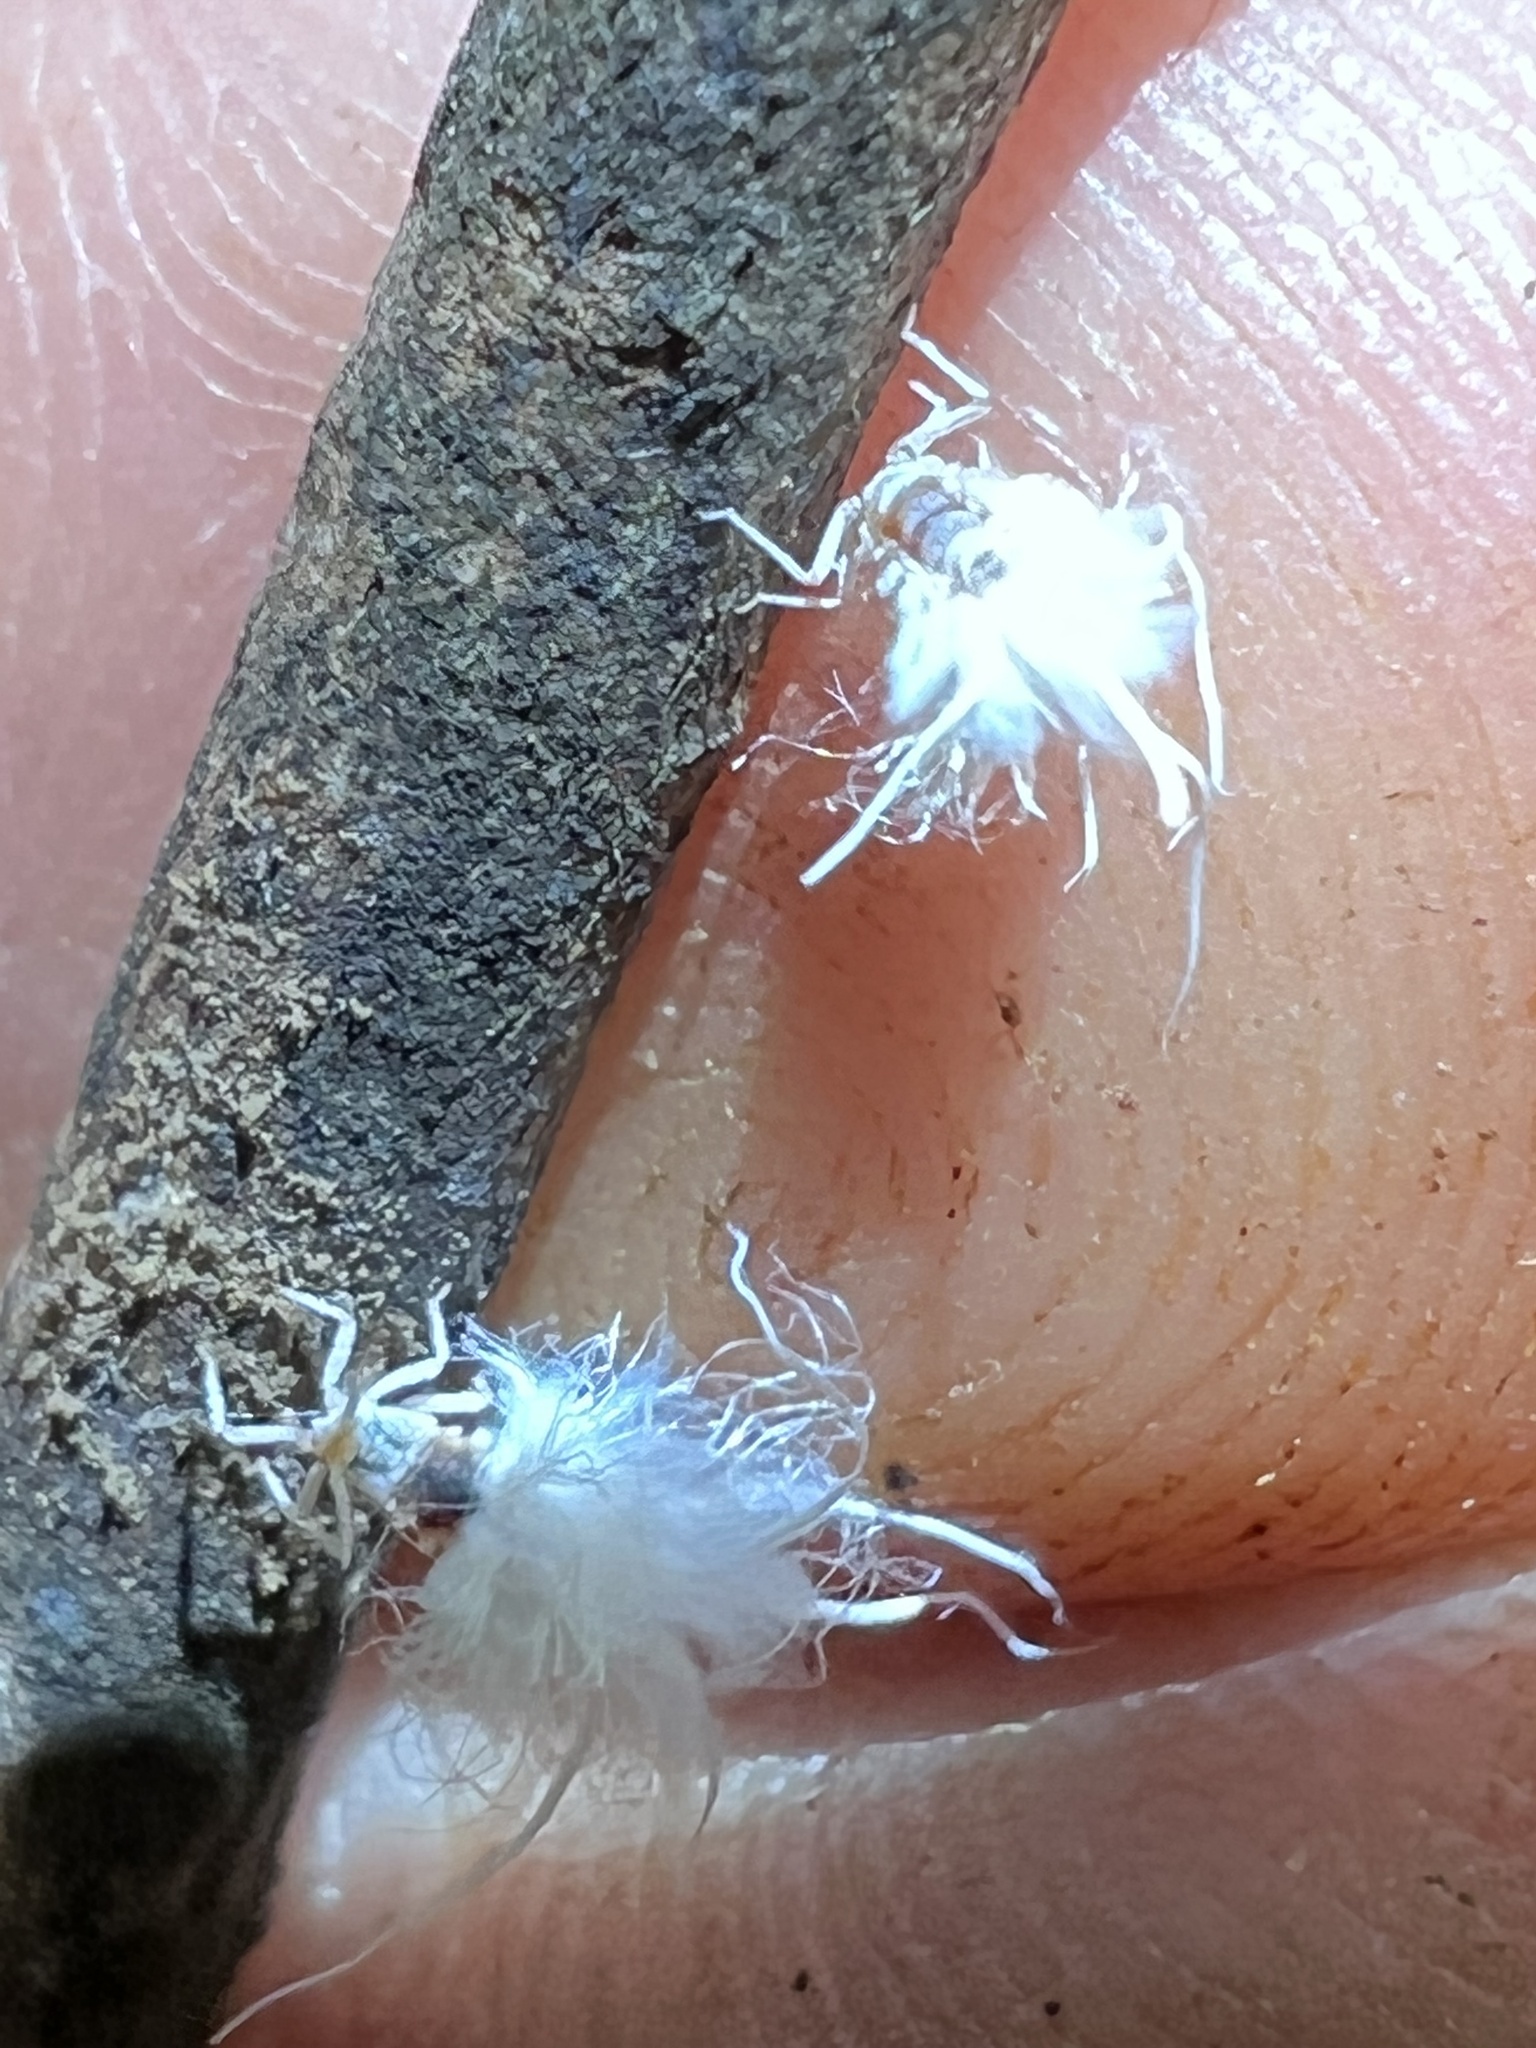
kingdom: Animalia
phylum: Arthropoda
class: Insecta
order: Hemiptera
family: Aphididae
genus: Grylloprociphilus
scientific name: Grylloprociphilus imbricator
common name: Beech blight aphid
